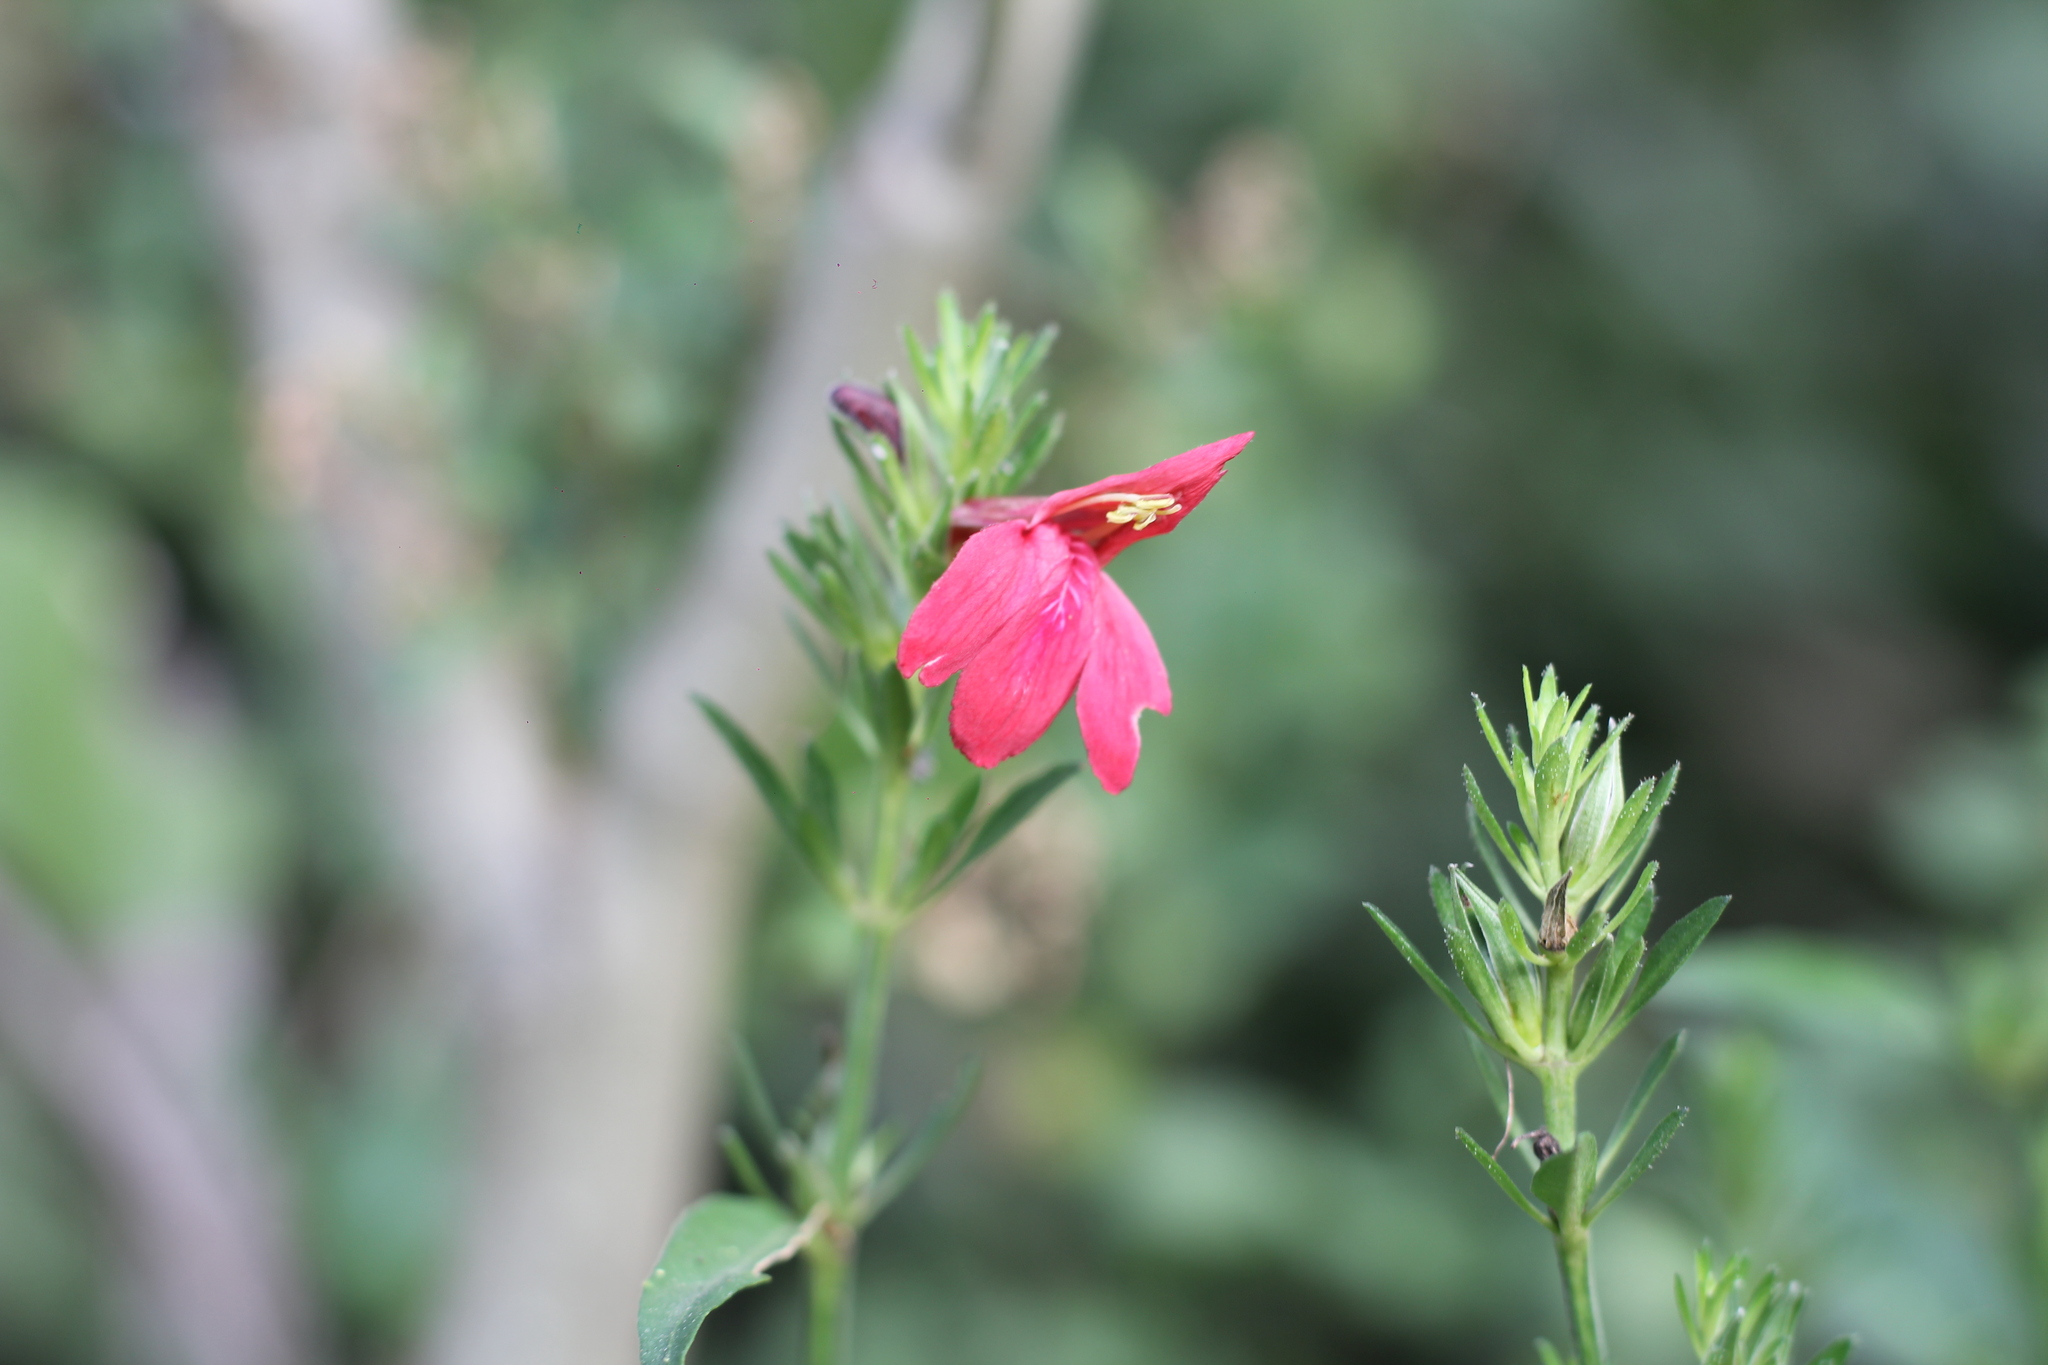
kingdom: Plantae
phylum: Tracheophyta
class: Magnoliopsida
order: Lamiales
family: Acanthaceae
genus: Justicia
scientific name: Justicia dumetorum
